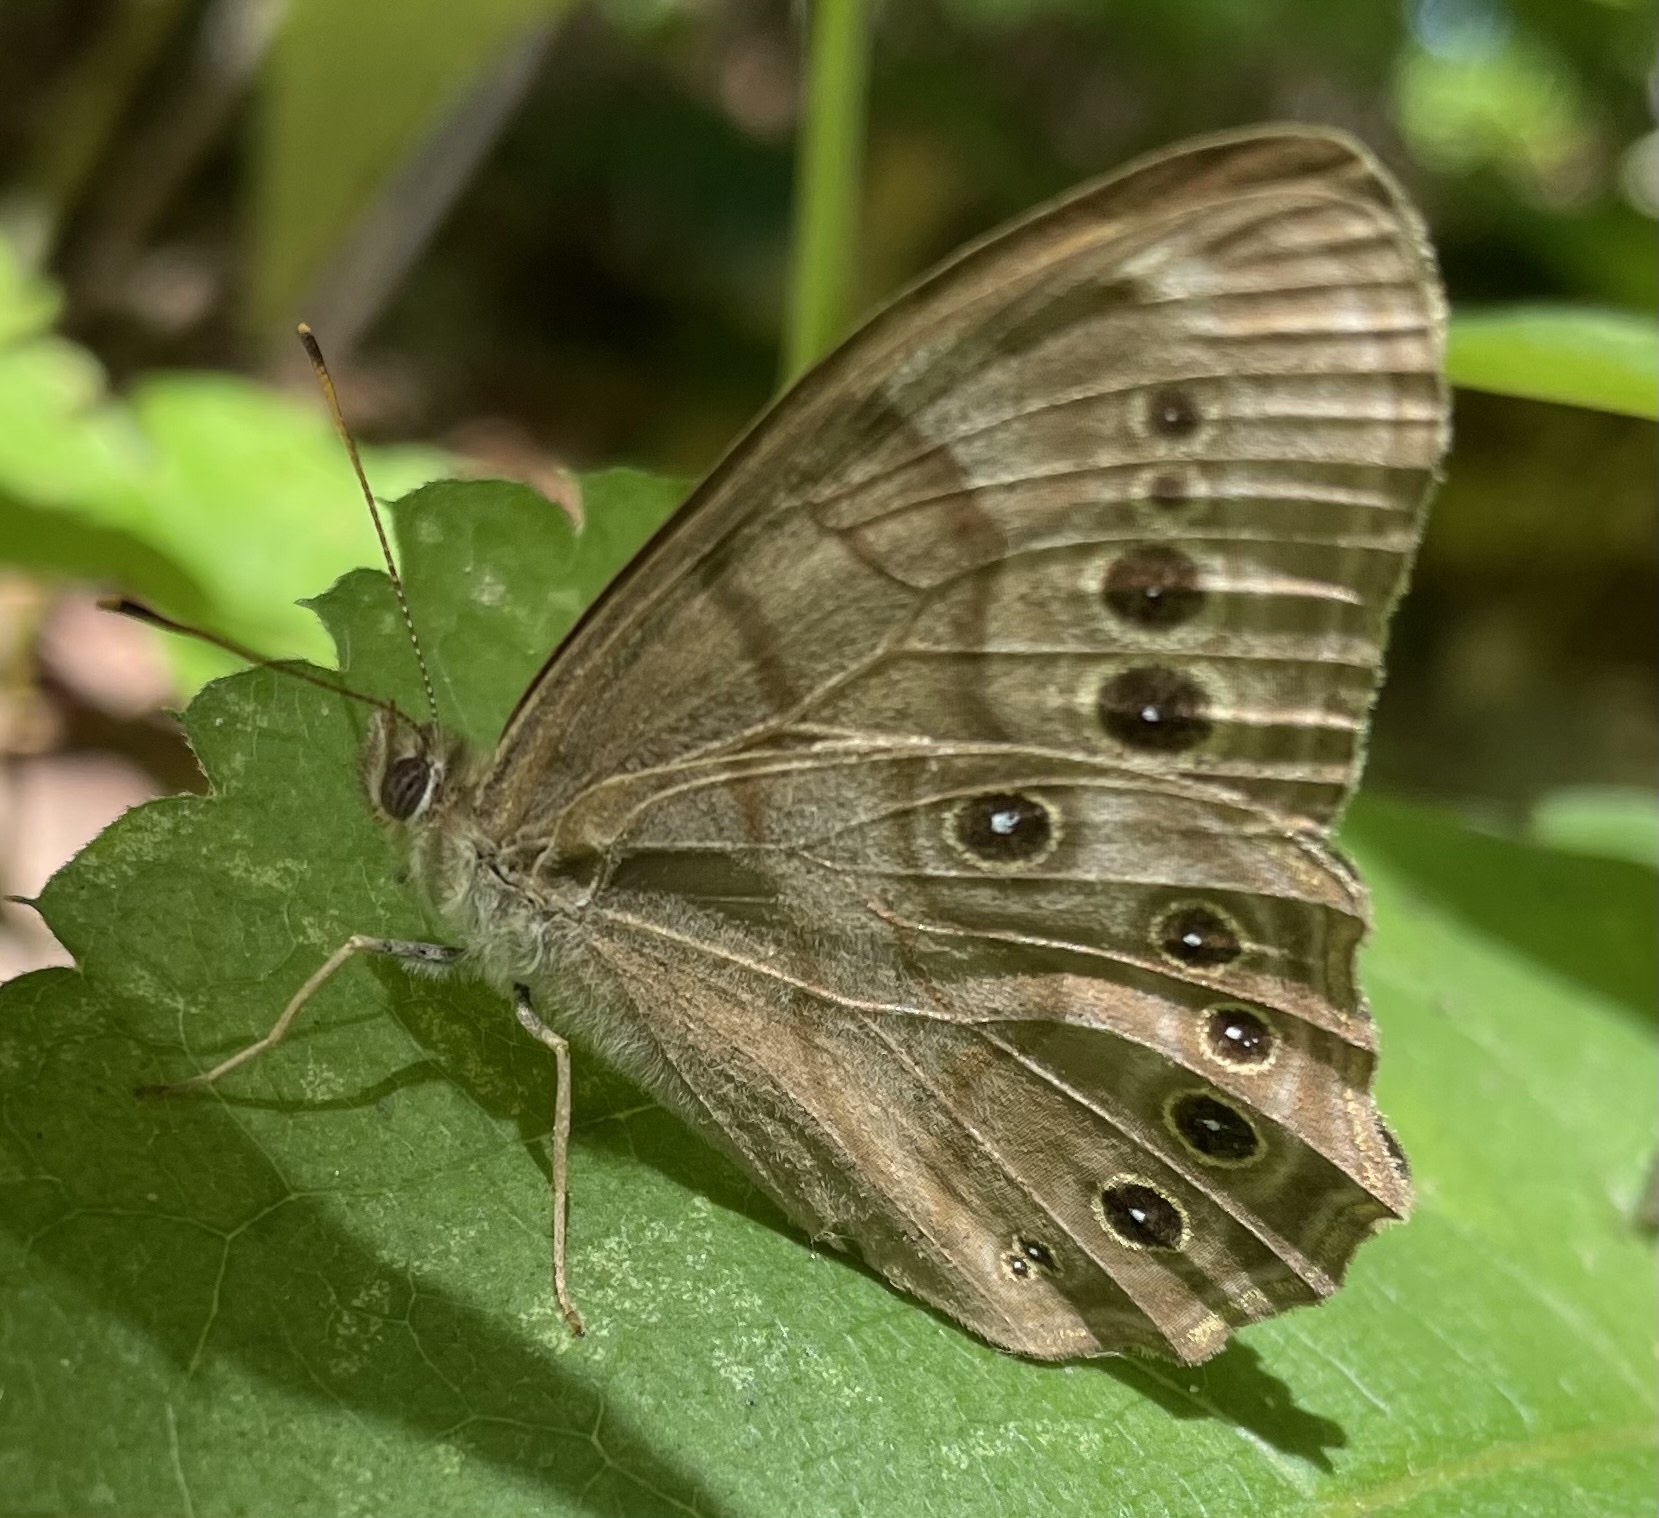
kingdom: Animalia
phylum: Arthropoda
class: Insecta
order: Lepidoptera
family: Nymphalidae
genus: Lethe
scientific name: Lethe anthedon
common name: Northern pearly-eye
